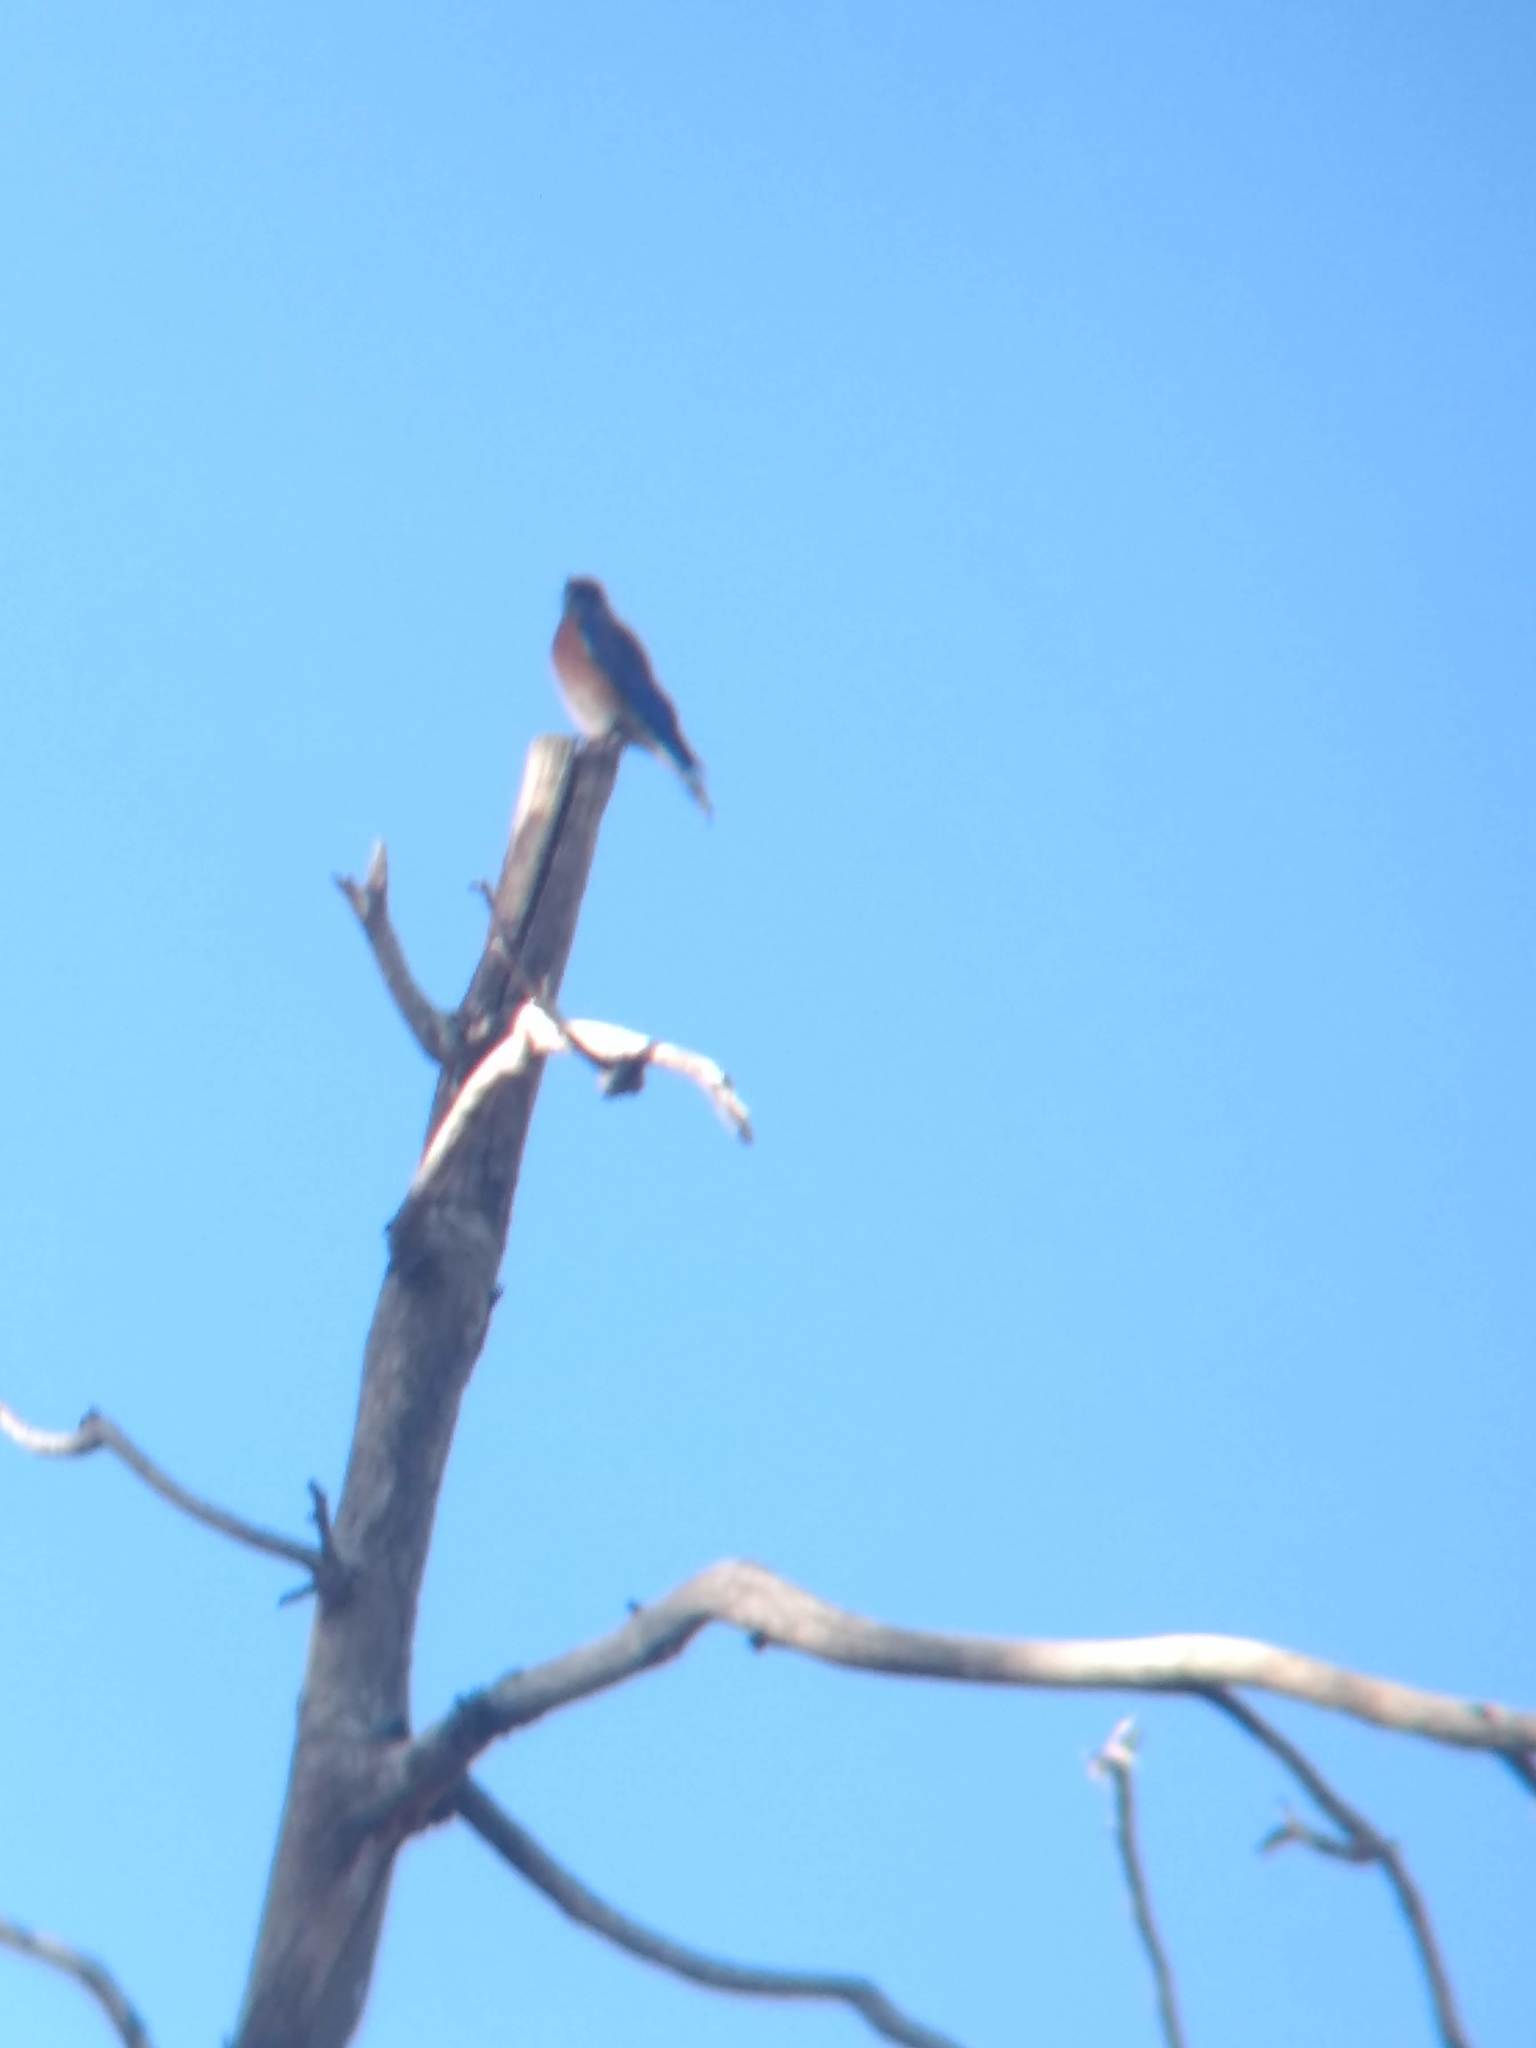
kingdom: Animalia
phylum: Chordata
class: Aves
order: Passeriformes
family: Turdidae
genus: Sialia
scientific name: Sialia mexicana
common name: Western bluebird
